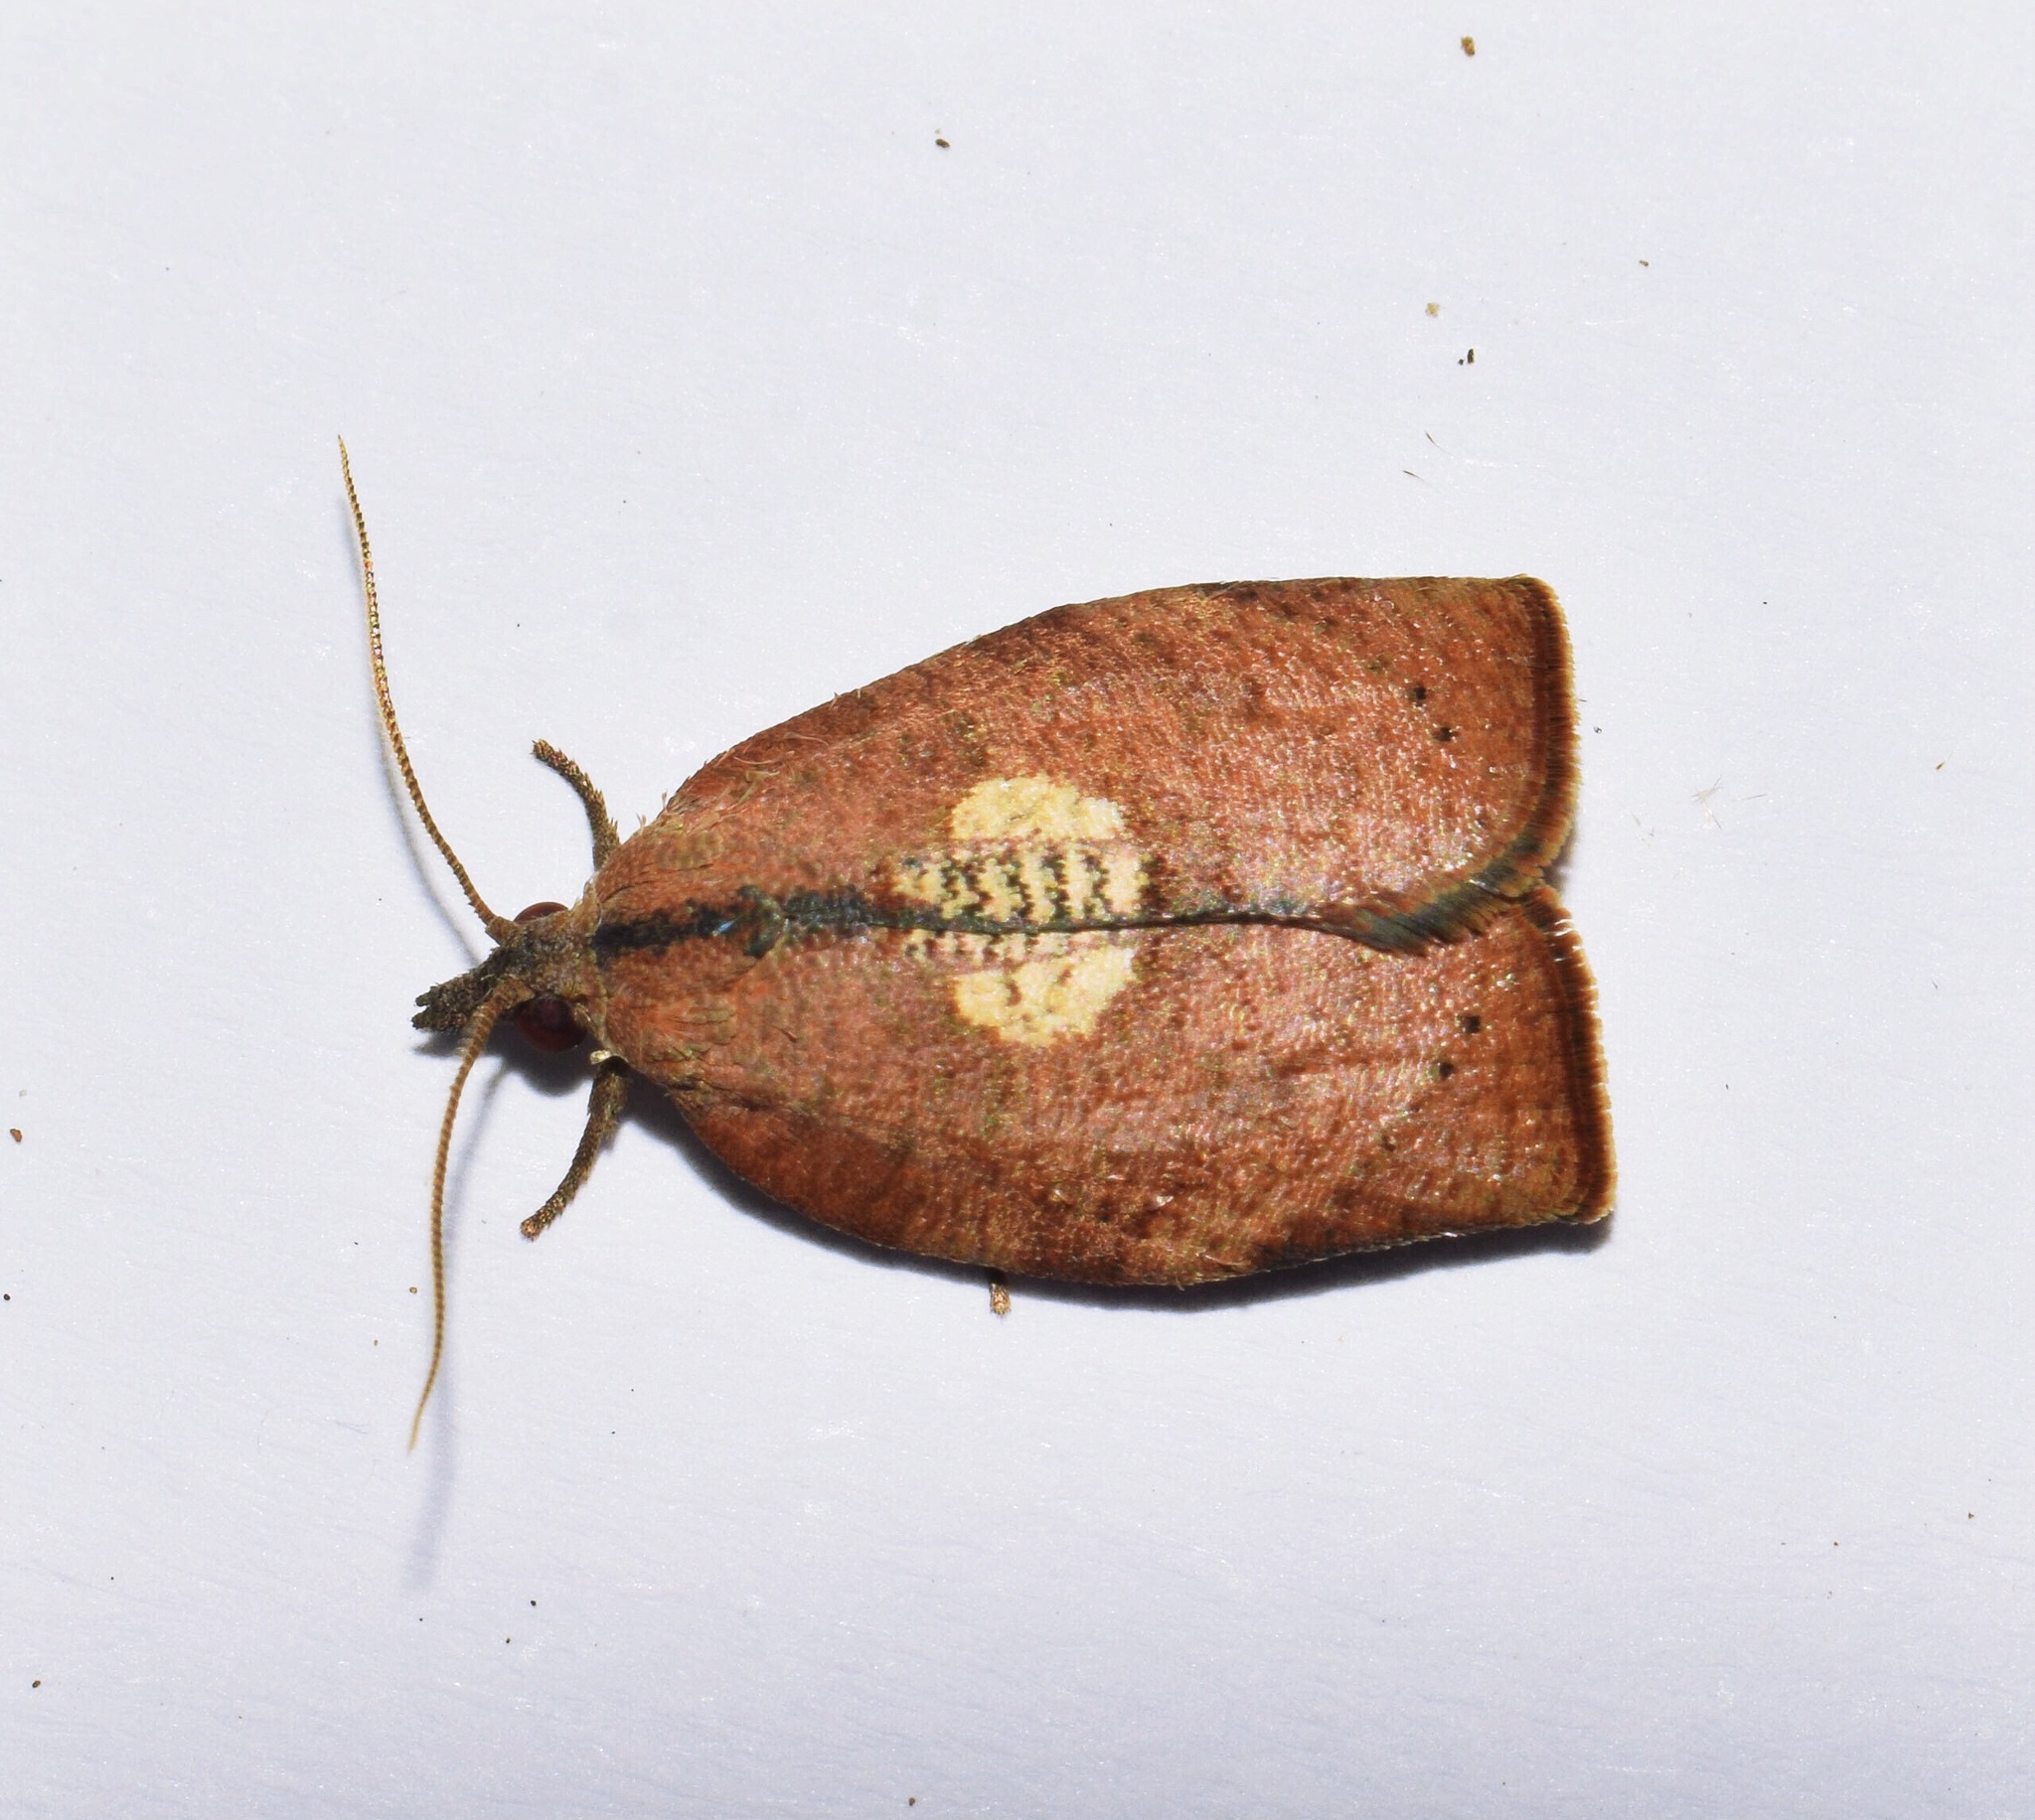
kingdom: Animalia
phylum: Arthropoda
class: Insecta
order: Lepidoptera
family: Tortricidae
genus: Epichoristodes
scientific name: Epichoristodes dorsiplagana
